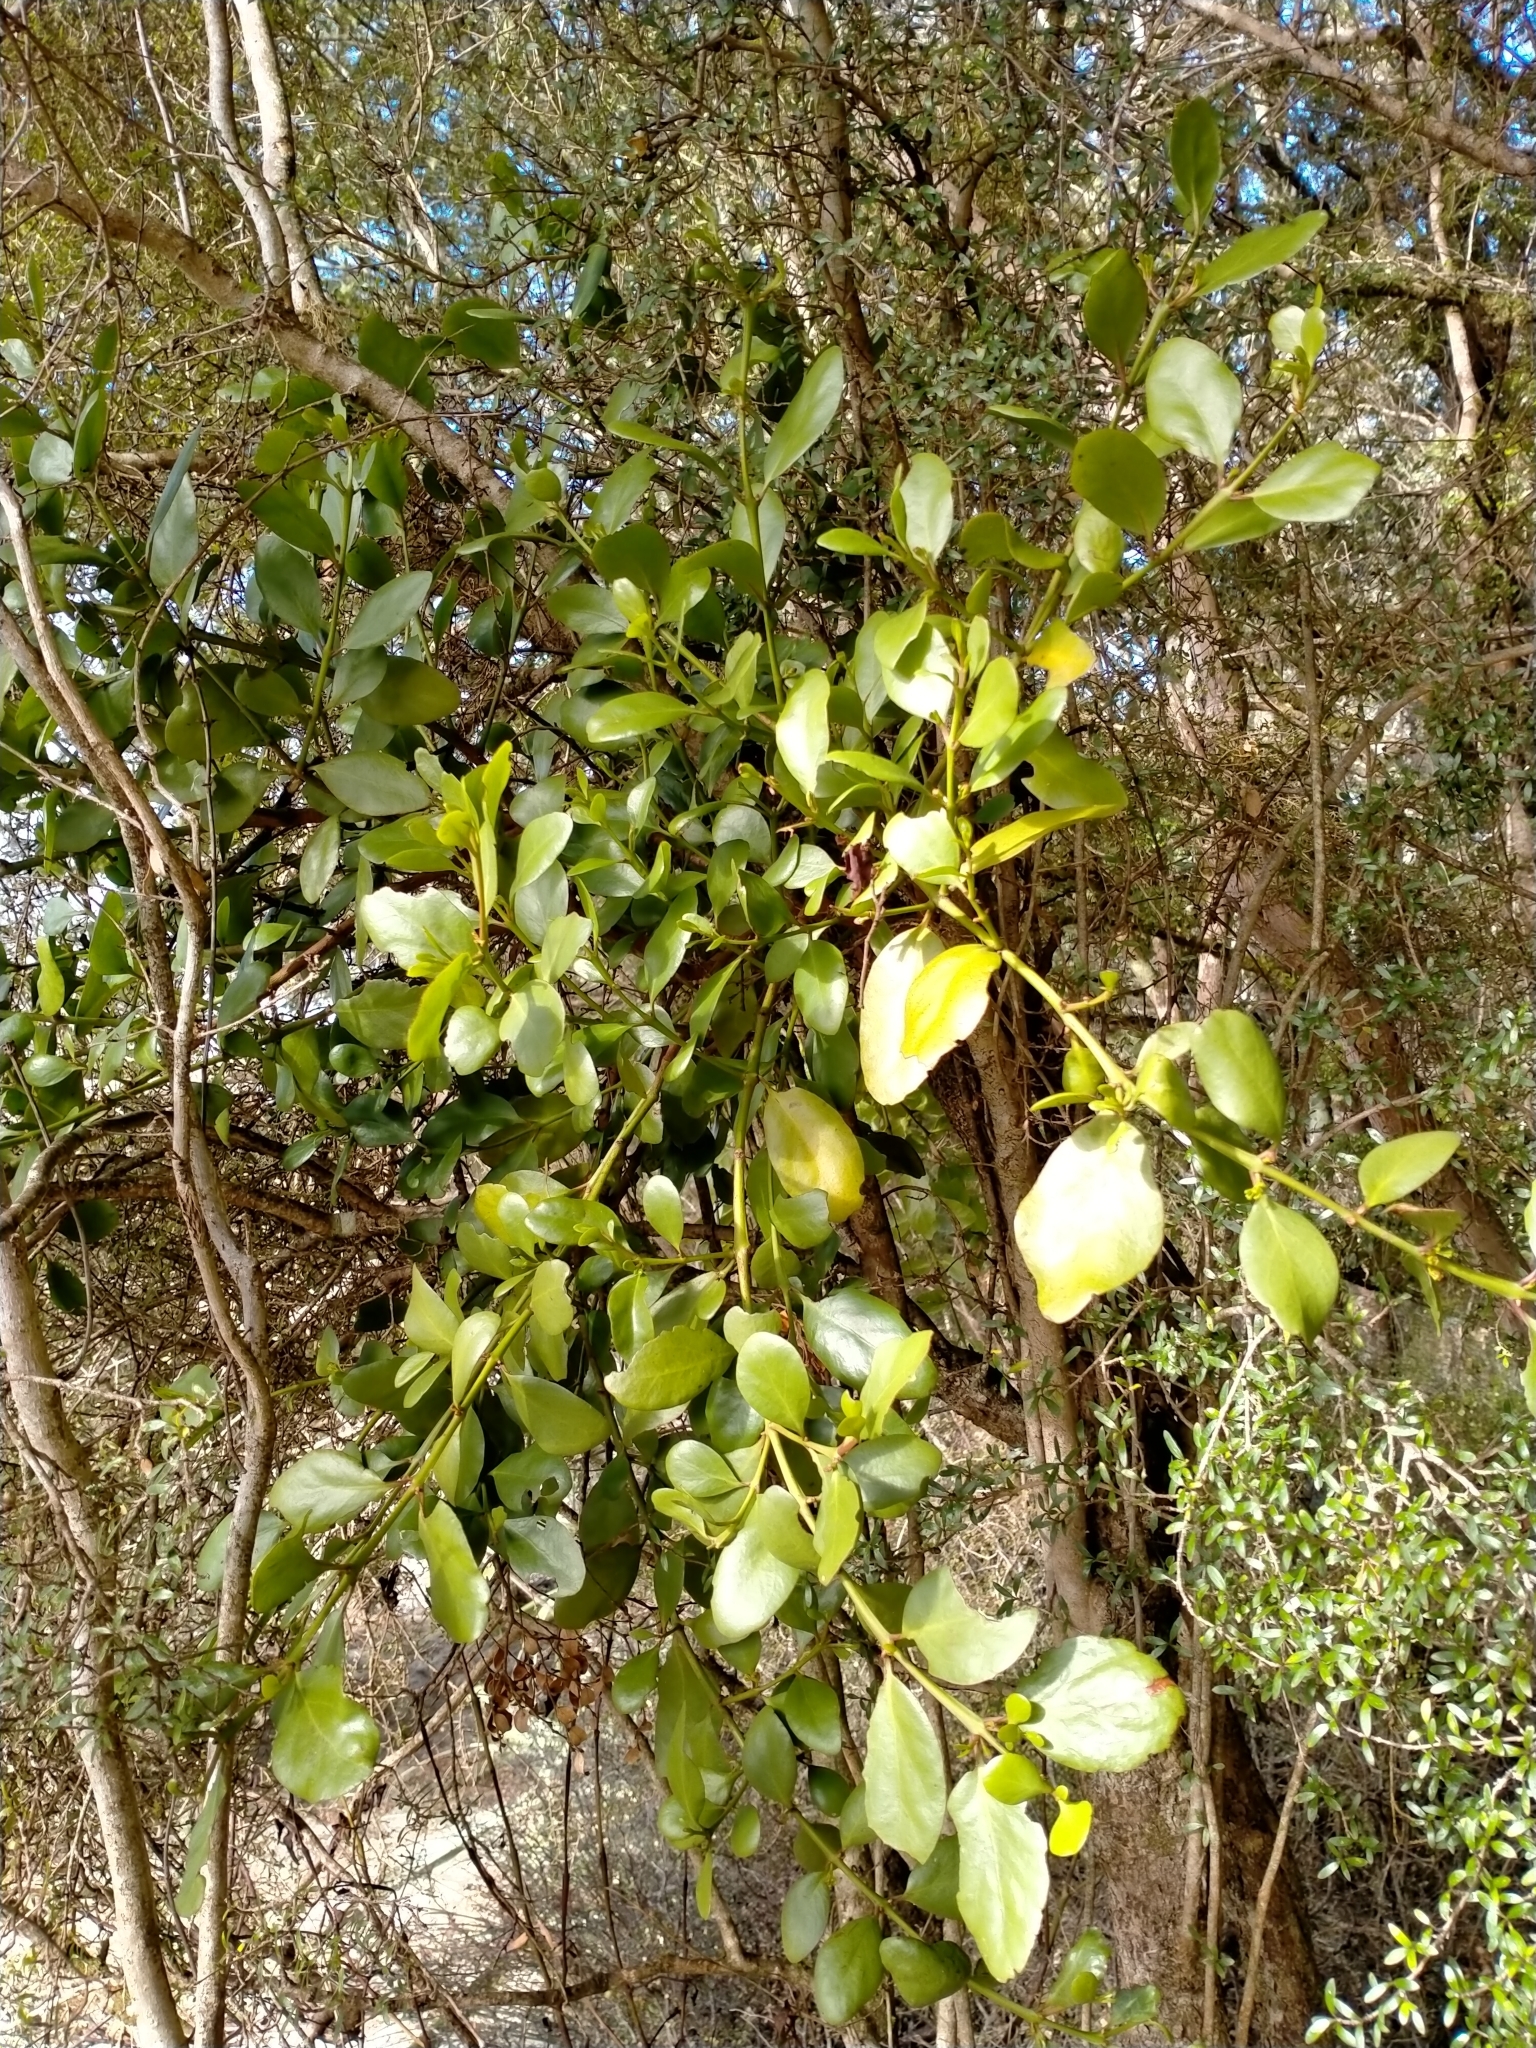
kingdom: Plantae
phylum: Tracheophyta
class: Magnoliopsida
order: Santalales
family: Loranthaceae
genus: Ileostylus
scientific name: Ileostylus micranthus
